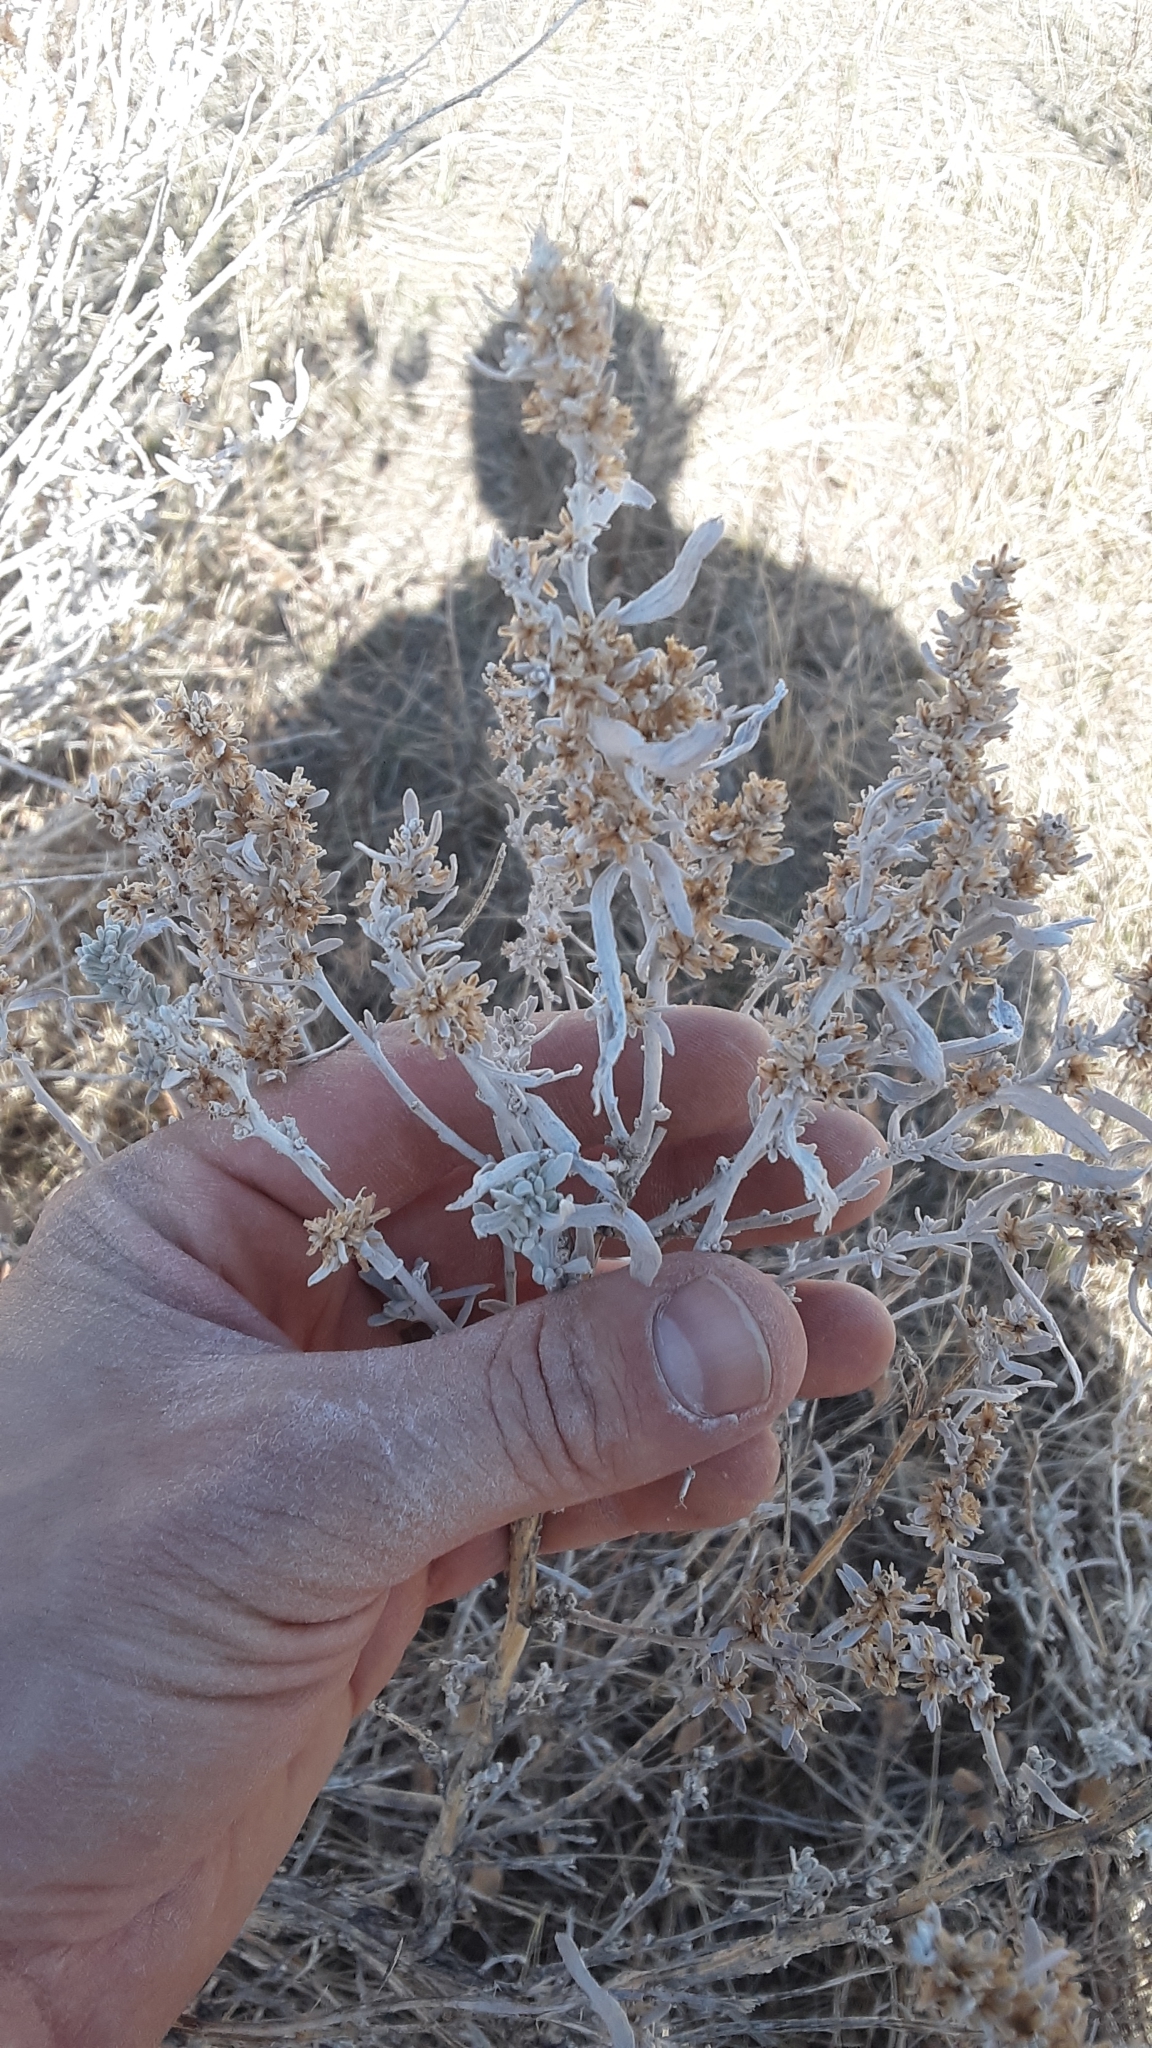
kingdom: Plantae
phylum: Tracheophyta
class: Magnoliopsida
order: Asterales
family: Asteraceae
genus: Artemisia
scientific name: Artemisia cana
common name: Silver sagebrush
